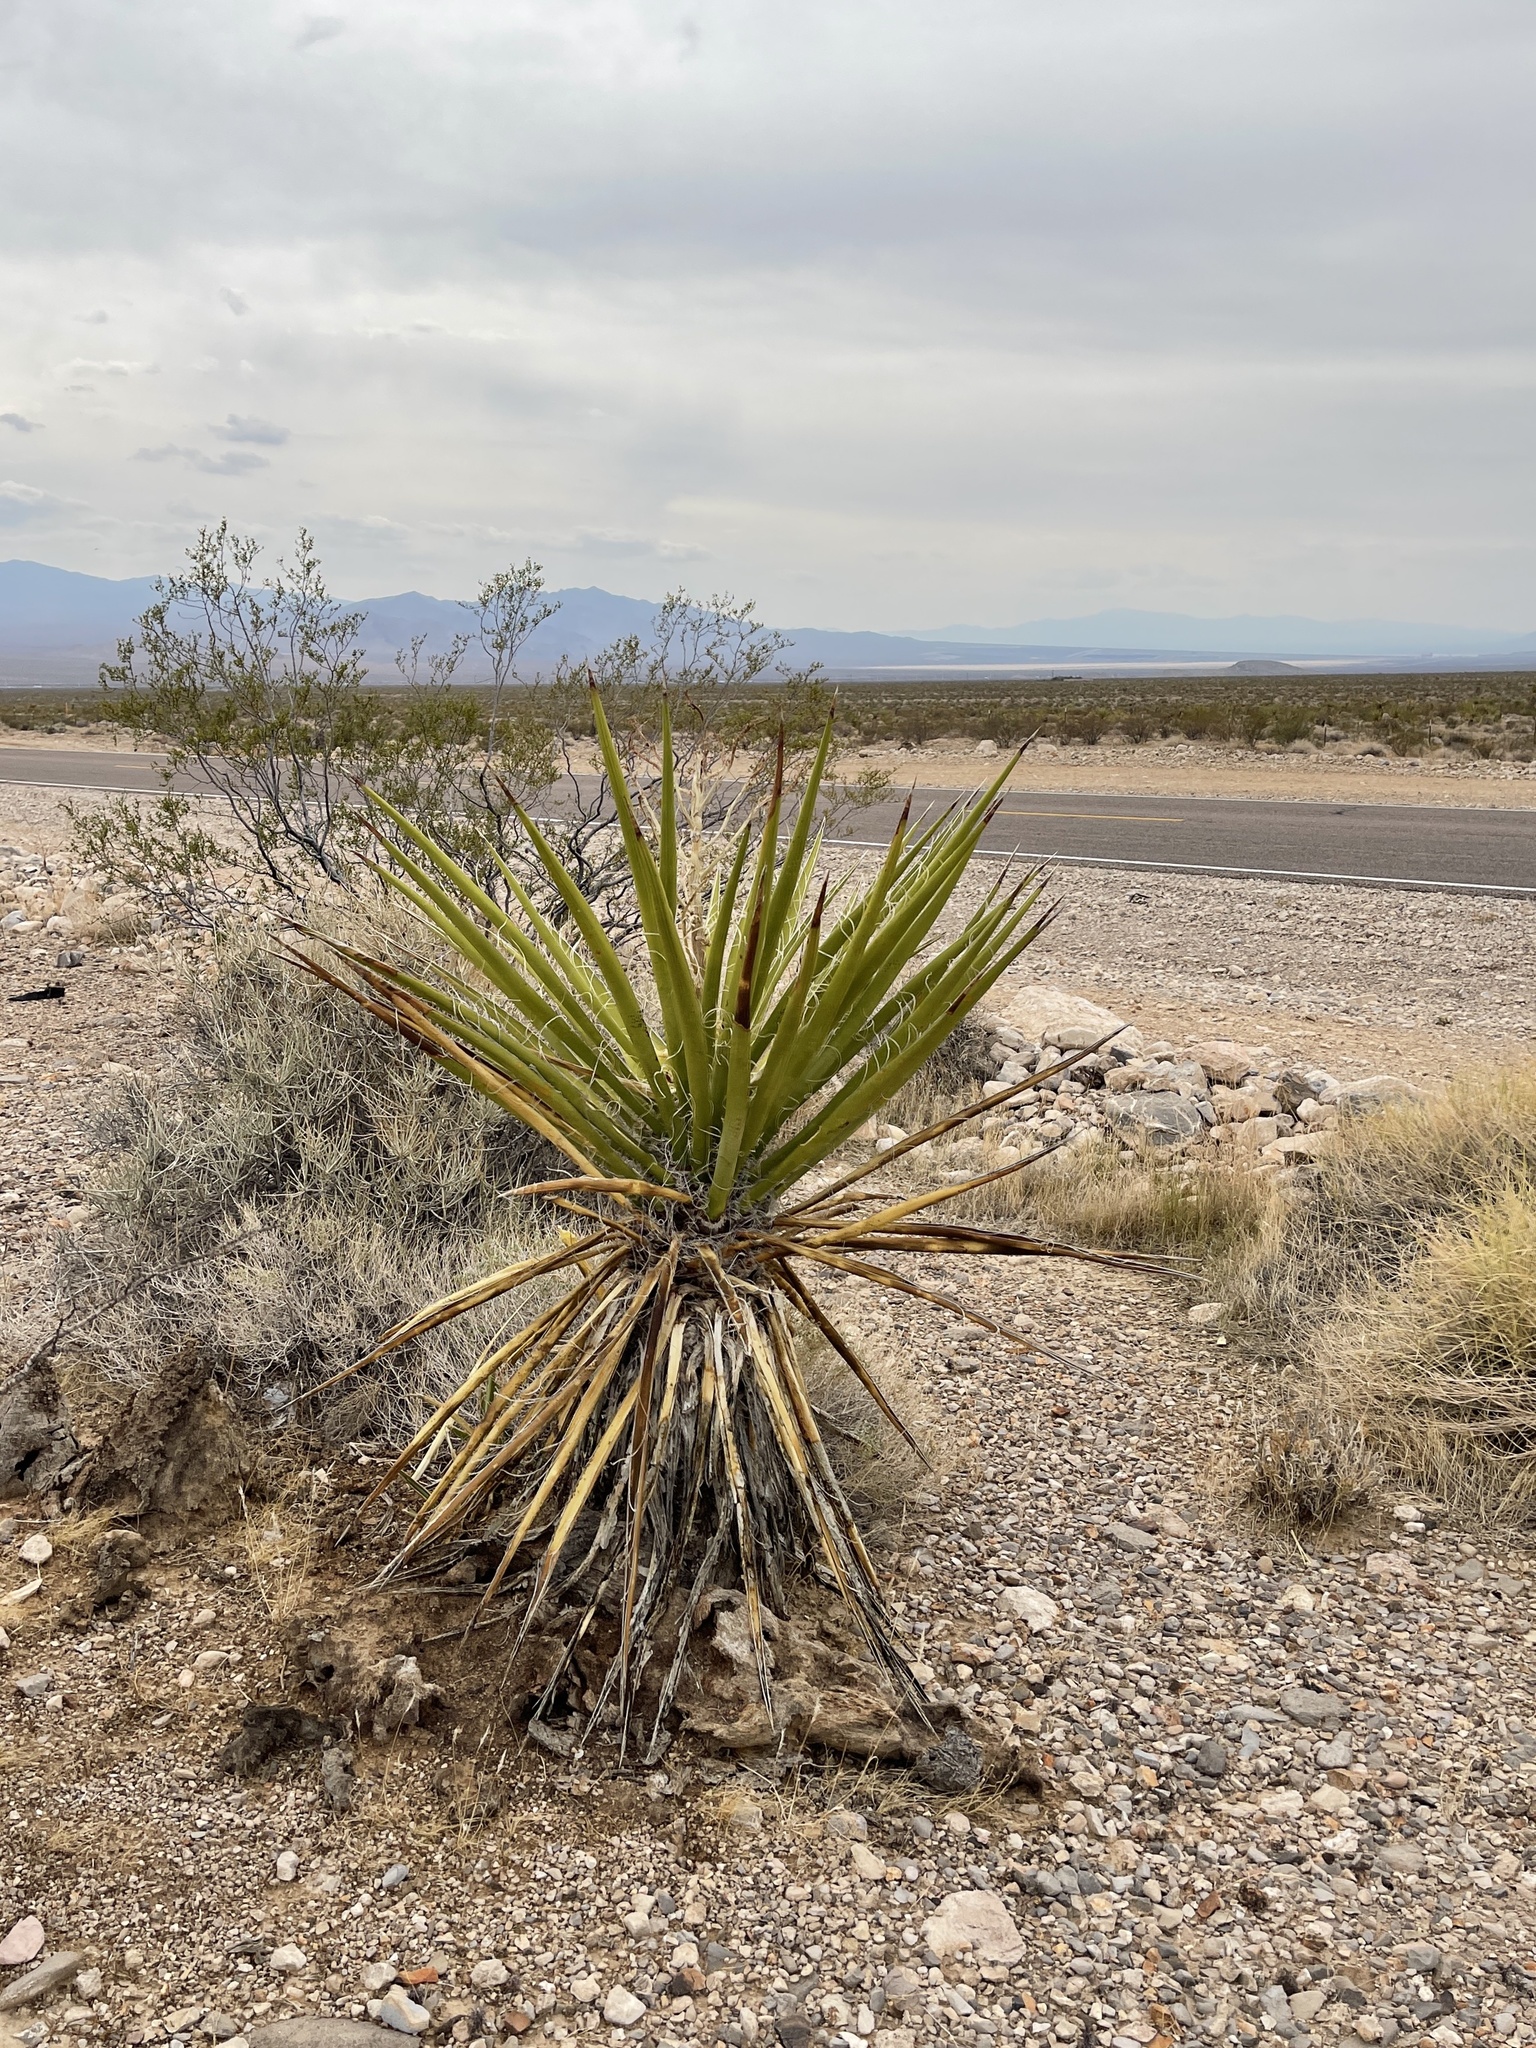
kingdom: Plantae
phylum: Tracheophyta
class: Liliopsida
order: Asparagales
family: Asparagaceae
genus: Yucca
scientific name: Yucca schidigera
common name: Mojave yucca
